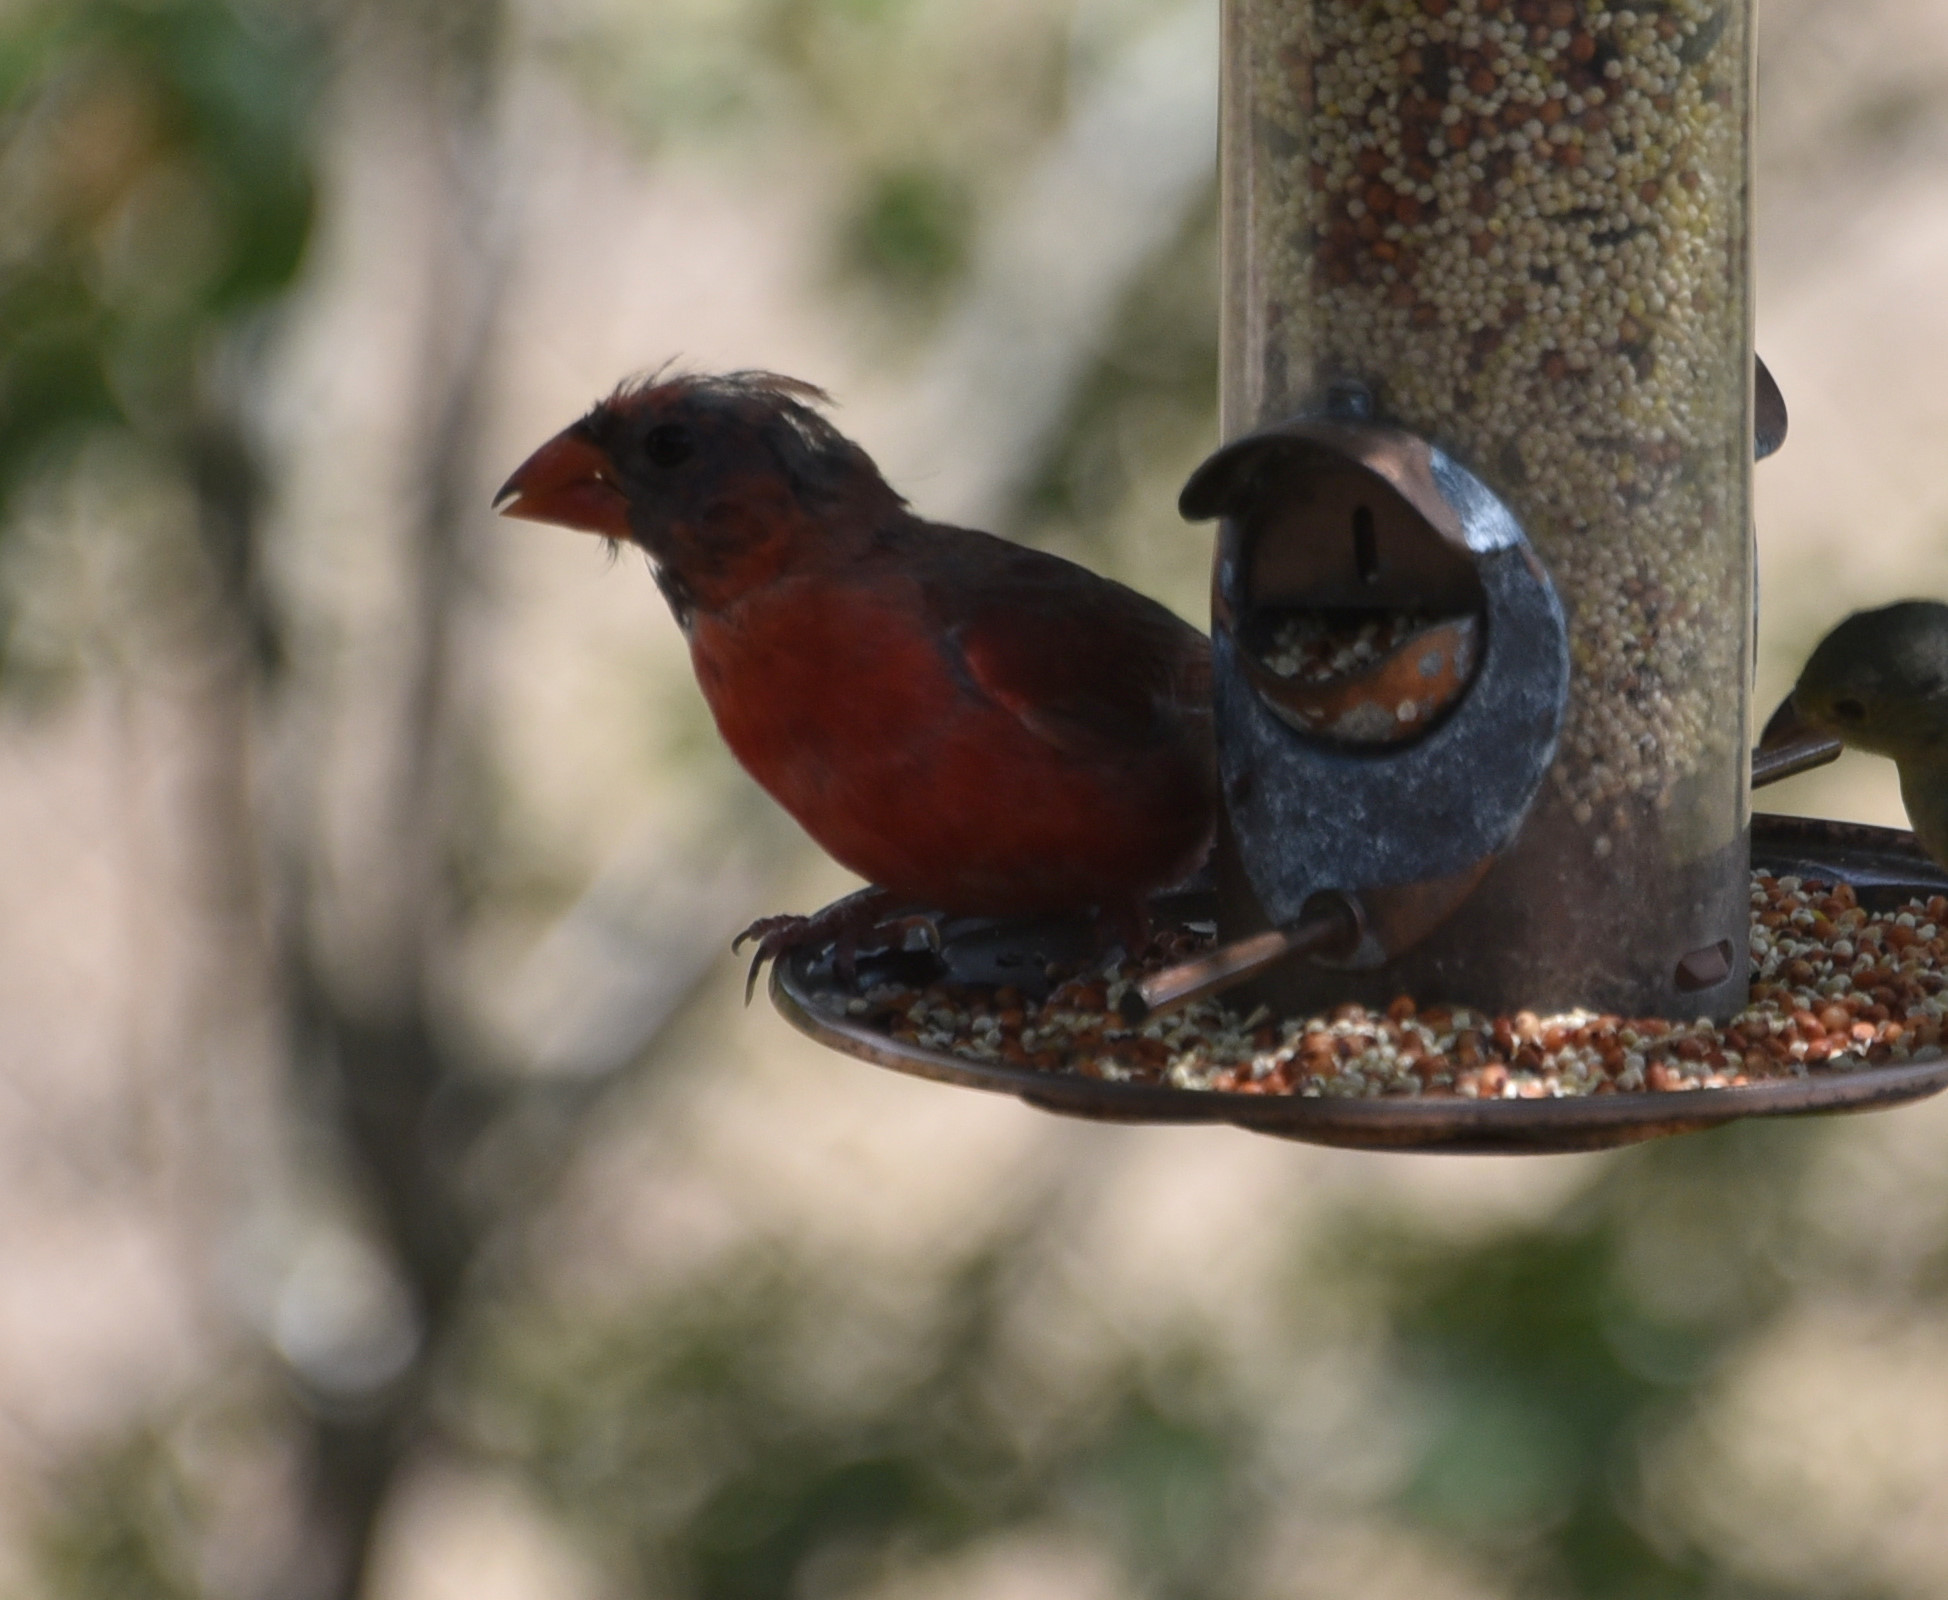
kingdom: Animalia
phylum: Chordata
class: Aves
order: Passeriformes
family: Cardinalidae
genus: Cardinalis
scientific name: Cardinalis cardinalis
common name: Northern cardinal
